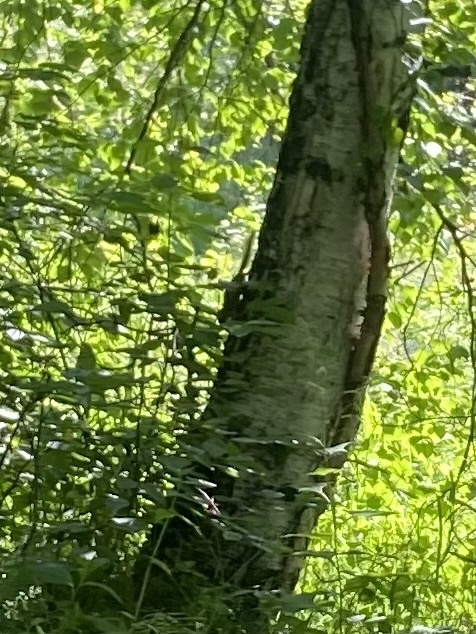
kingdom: Animalia
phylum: Chordata
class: Mammalia
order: Rodentia
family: Sciuridae
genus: Tamias
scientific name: Tamias sibiricus
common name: Siberian chipmunk
